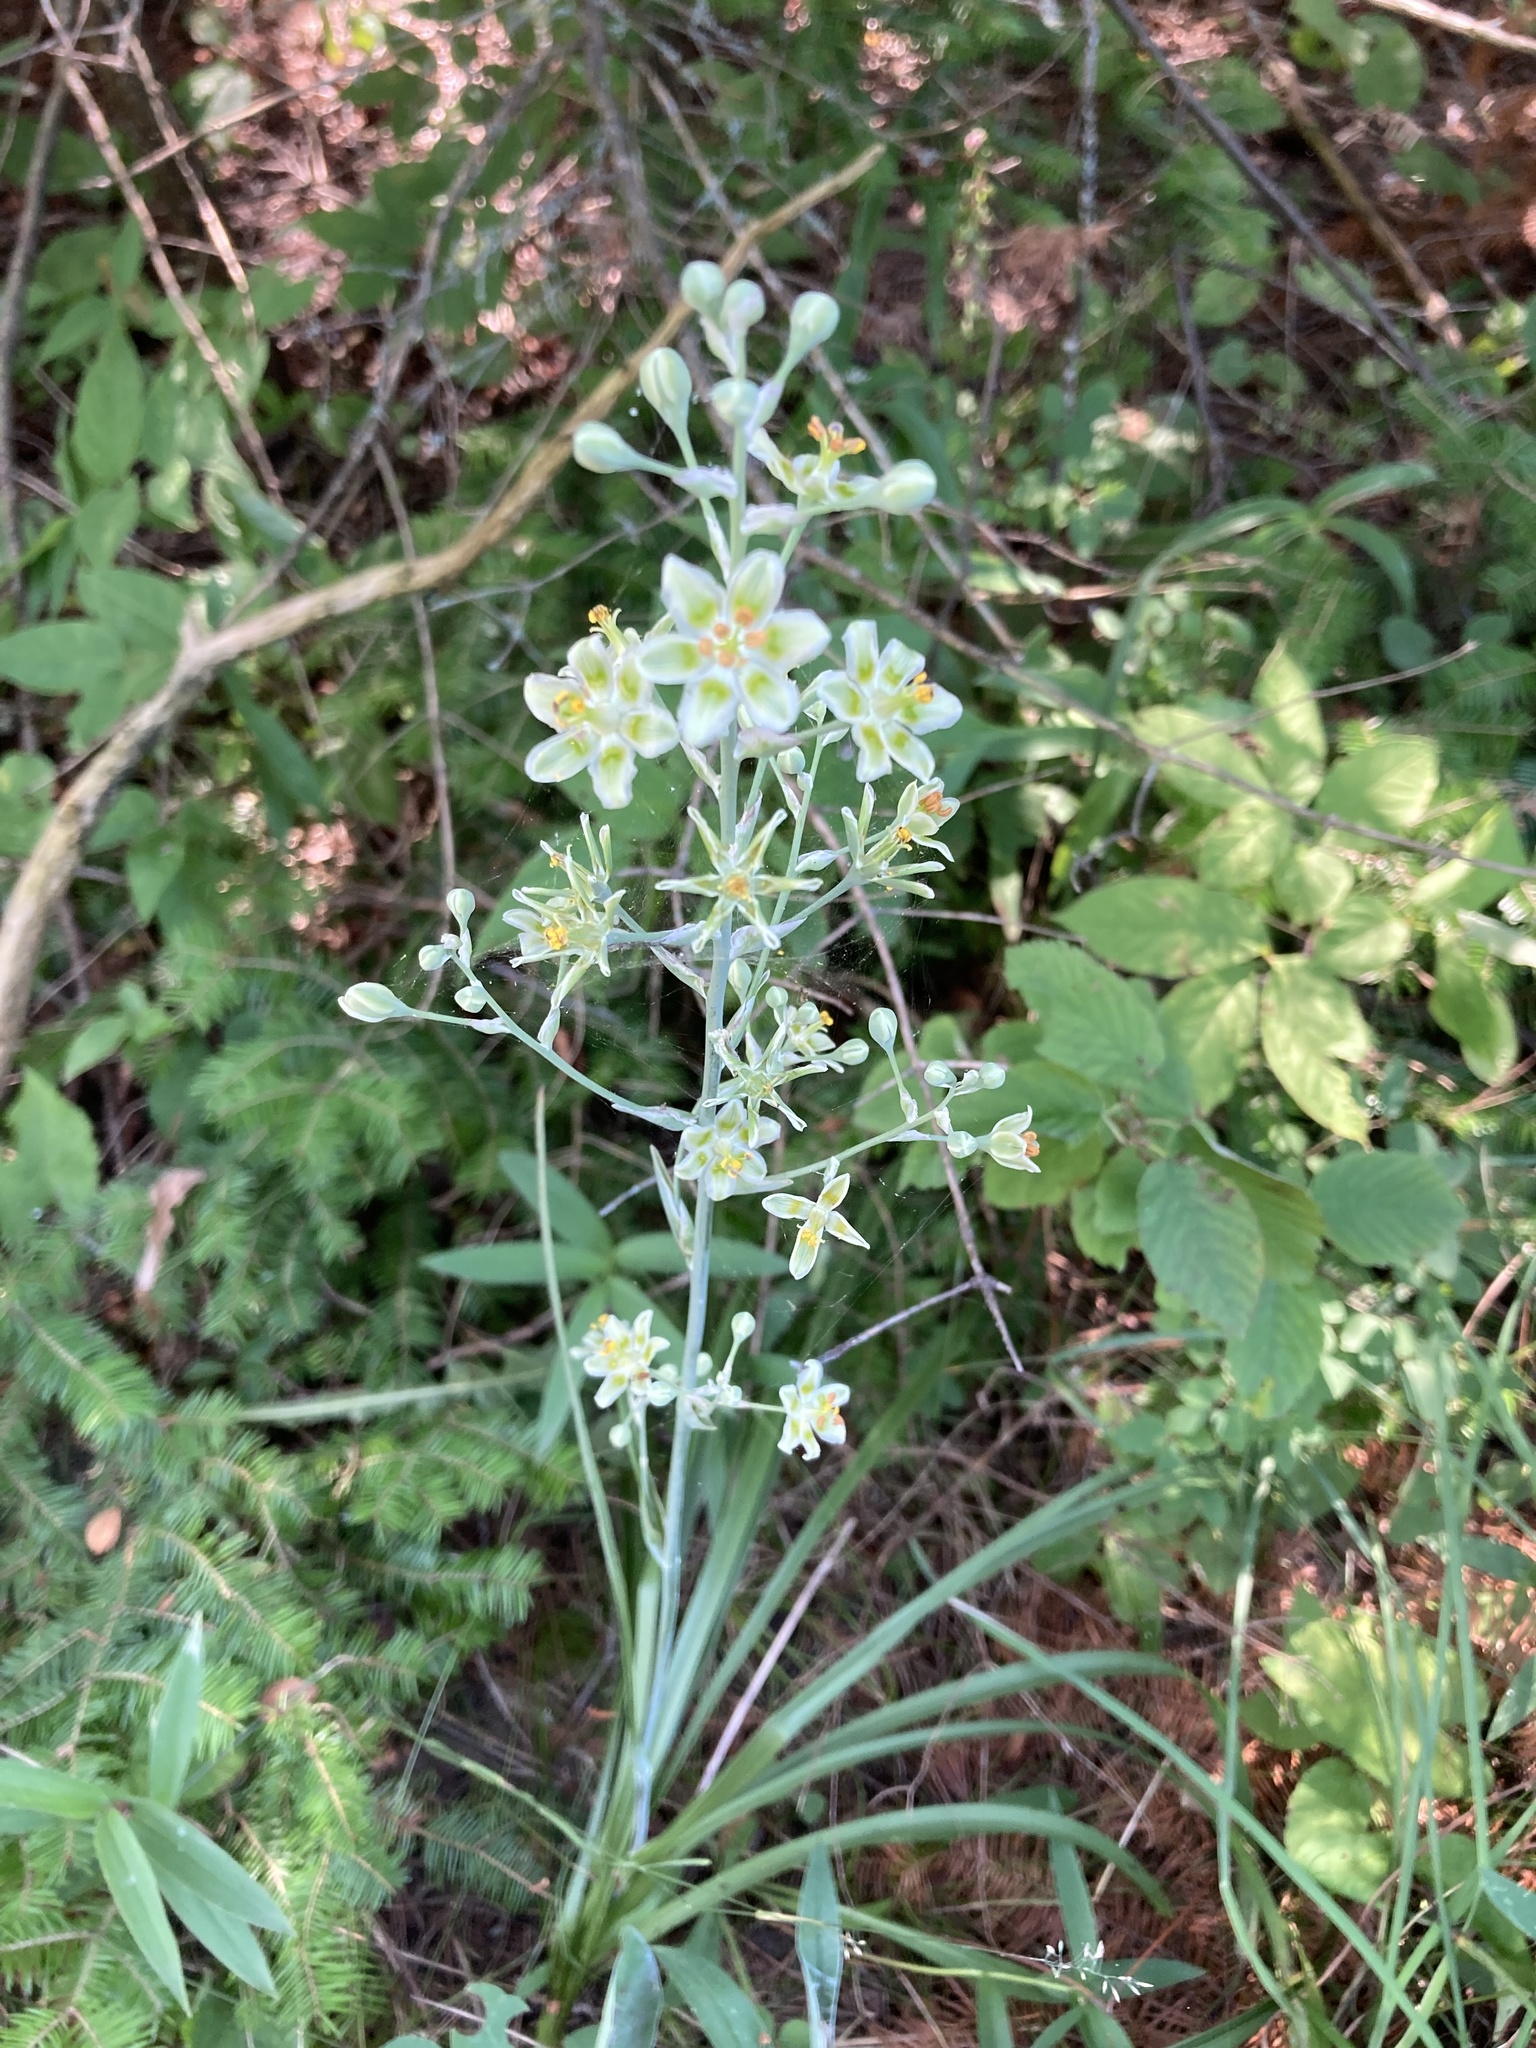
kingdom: Plantae
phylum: Tracheophyta
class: Liliopsida
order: Liliales
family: Melanthiaceae
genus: Anticlea
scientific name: Anticlea elegans
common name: Mountain death camas
